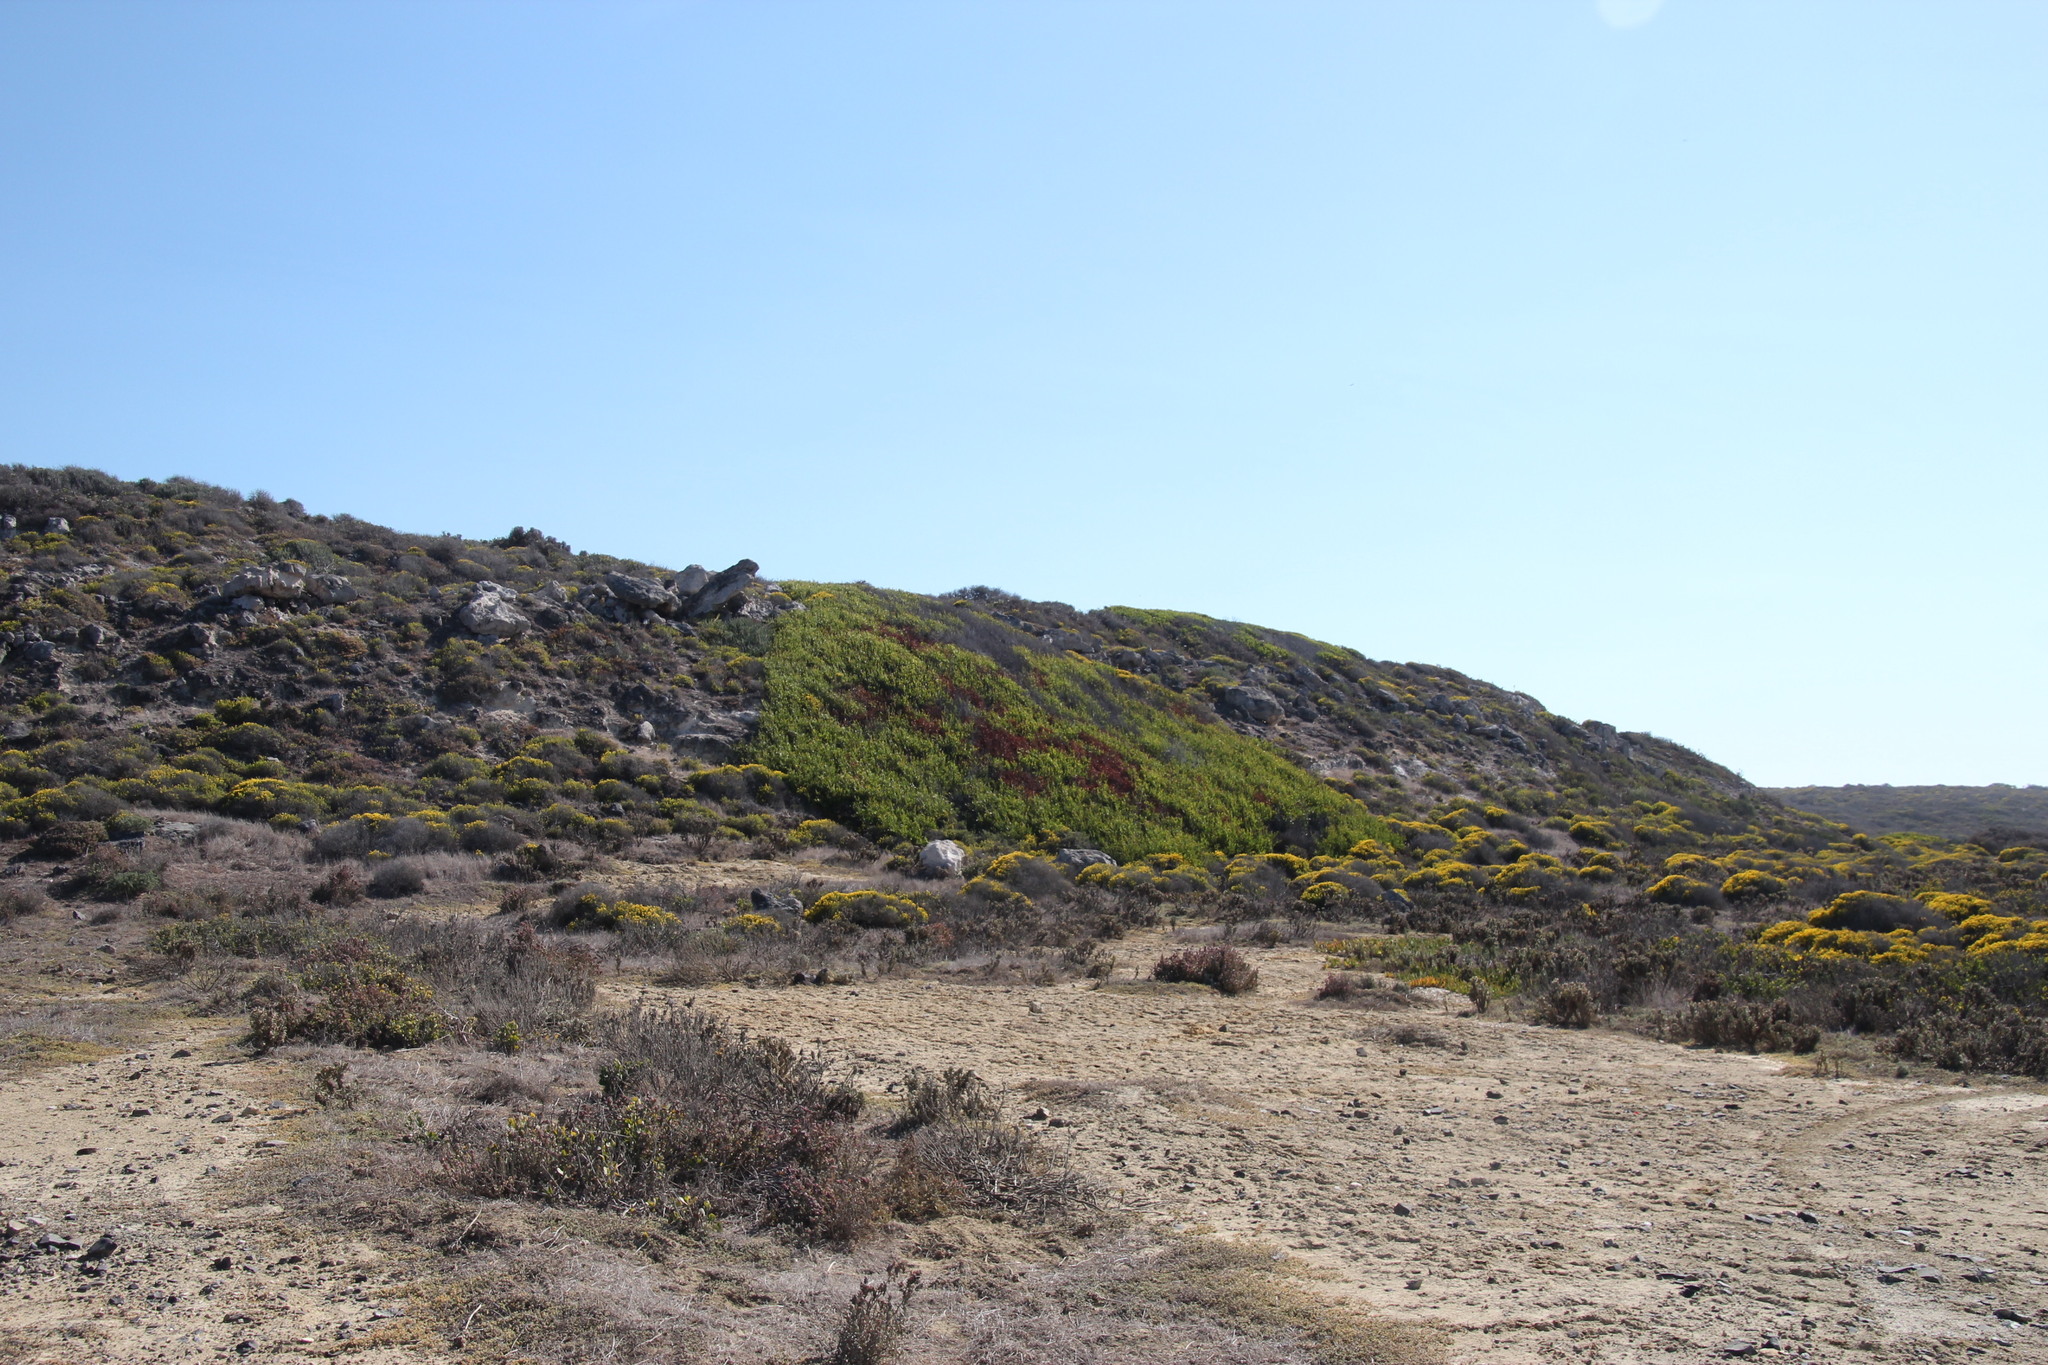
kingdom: Plantae
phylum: Tracheophyta
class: Magnoliopsida
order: Asterales
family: Asteraceae
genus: Pteronia
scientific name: Pteronia uncinata
